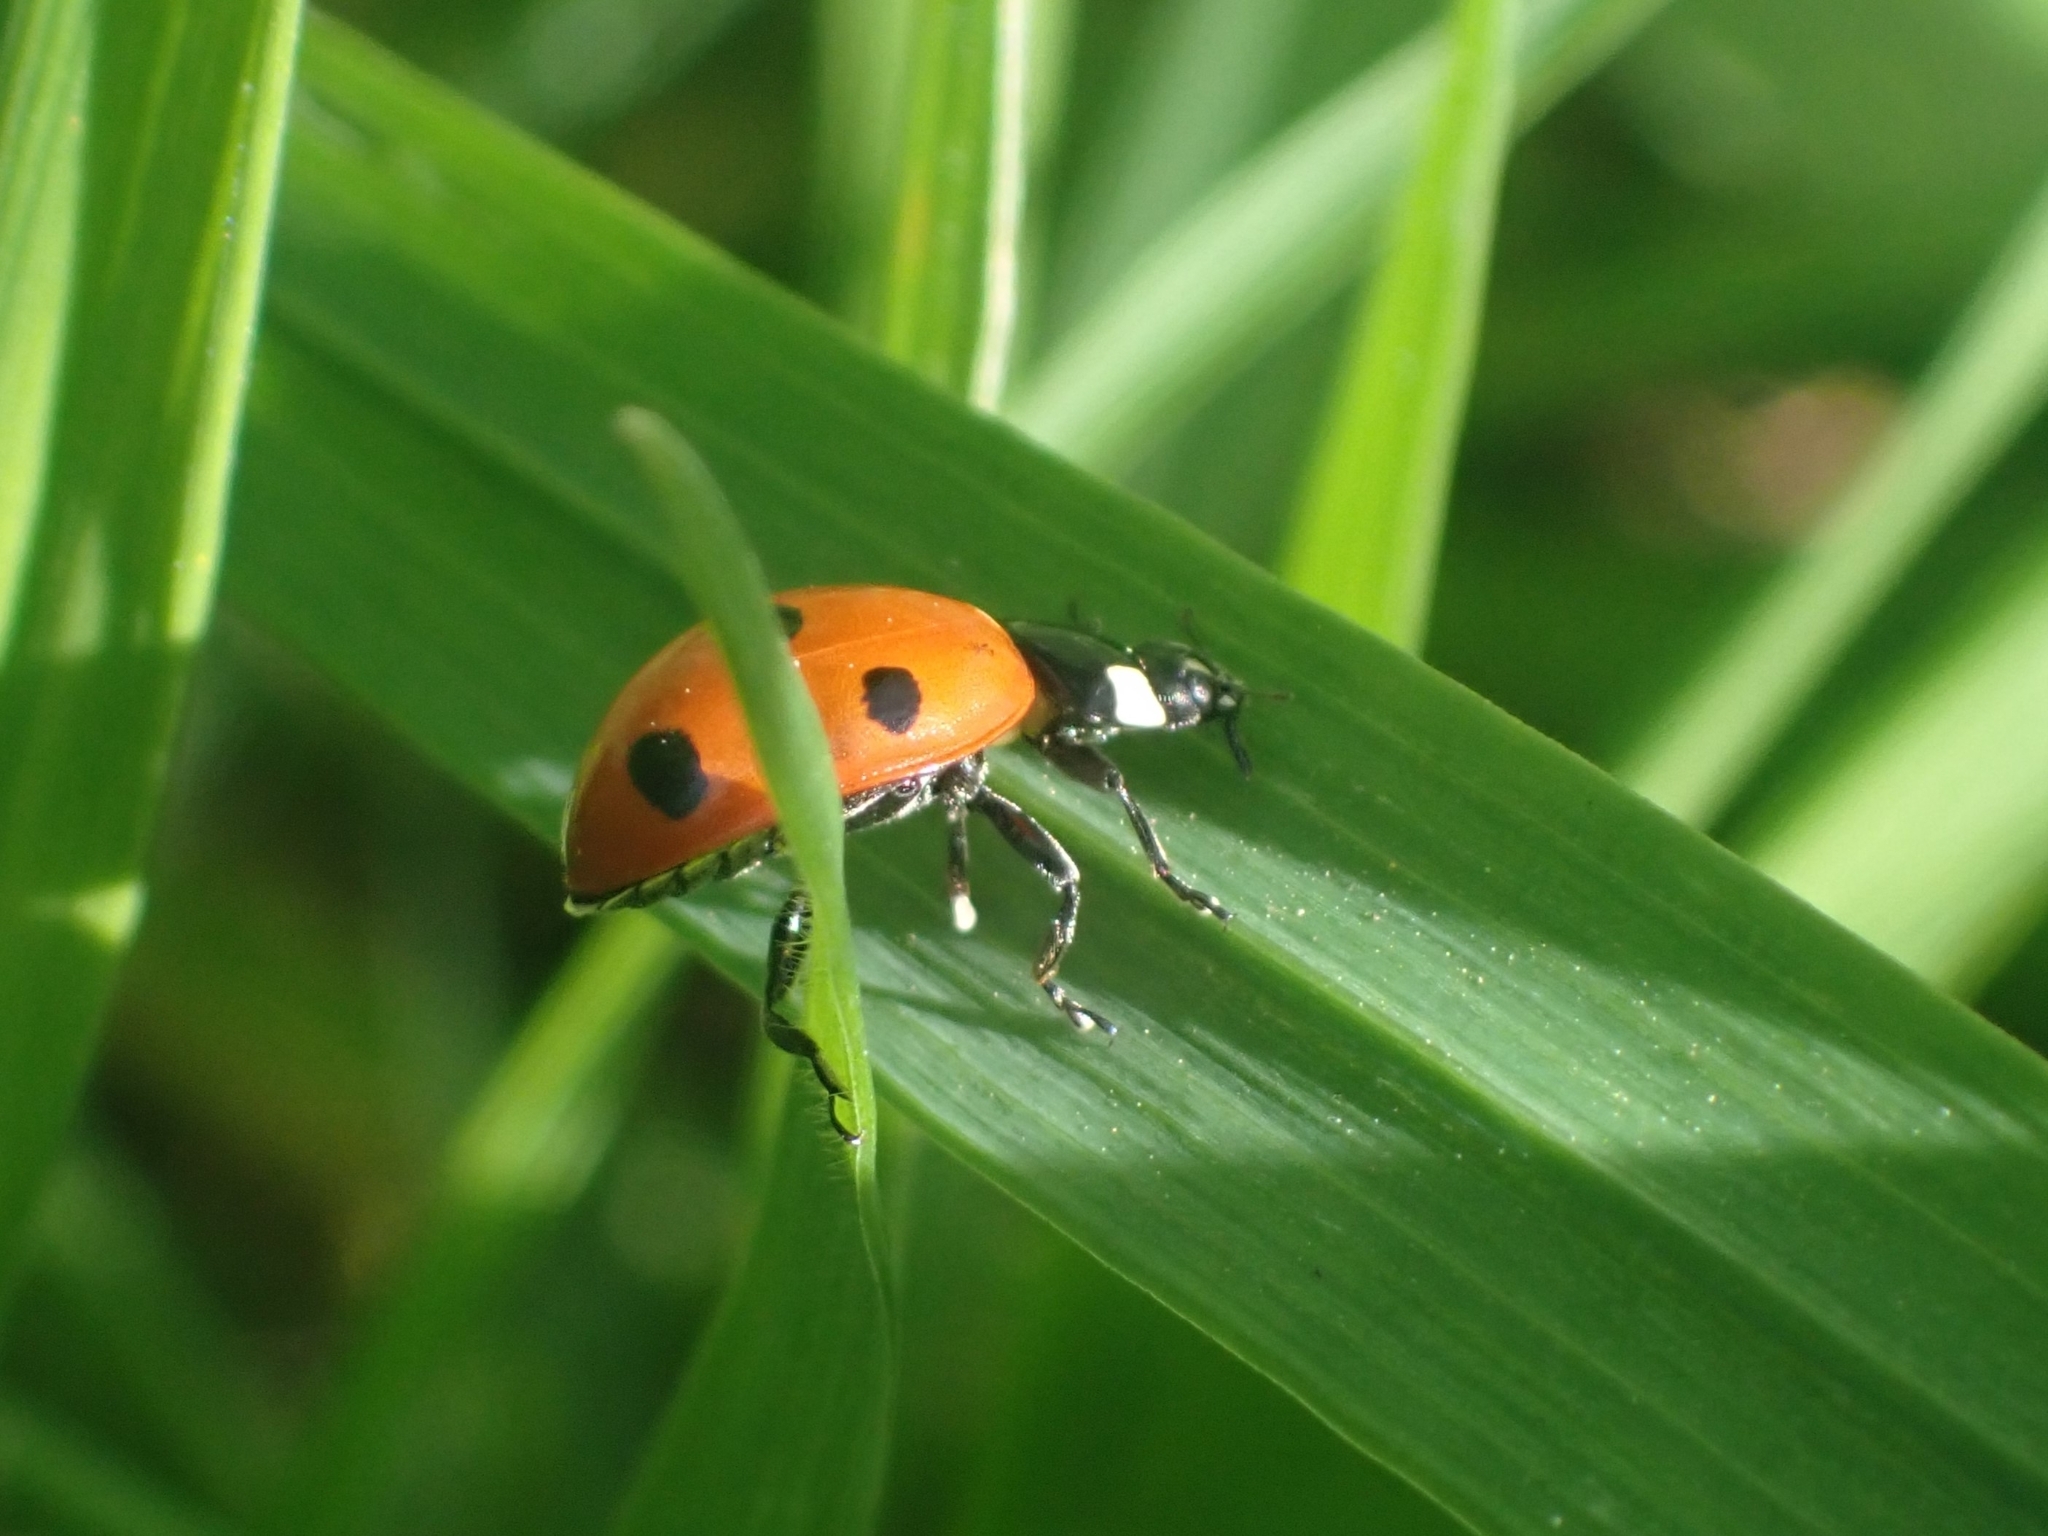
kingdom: Animalia
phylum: Arthropoda
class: Insecta
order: Coleoptera
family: Coccinellidae
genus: Coccinella
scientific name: Coccinella septempunctata
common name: Sevenspotted lady beetle
